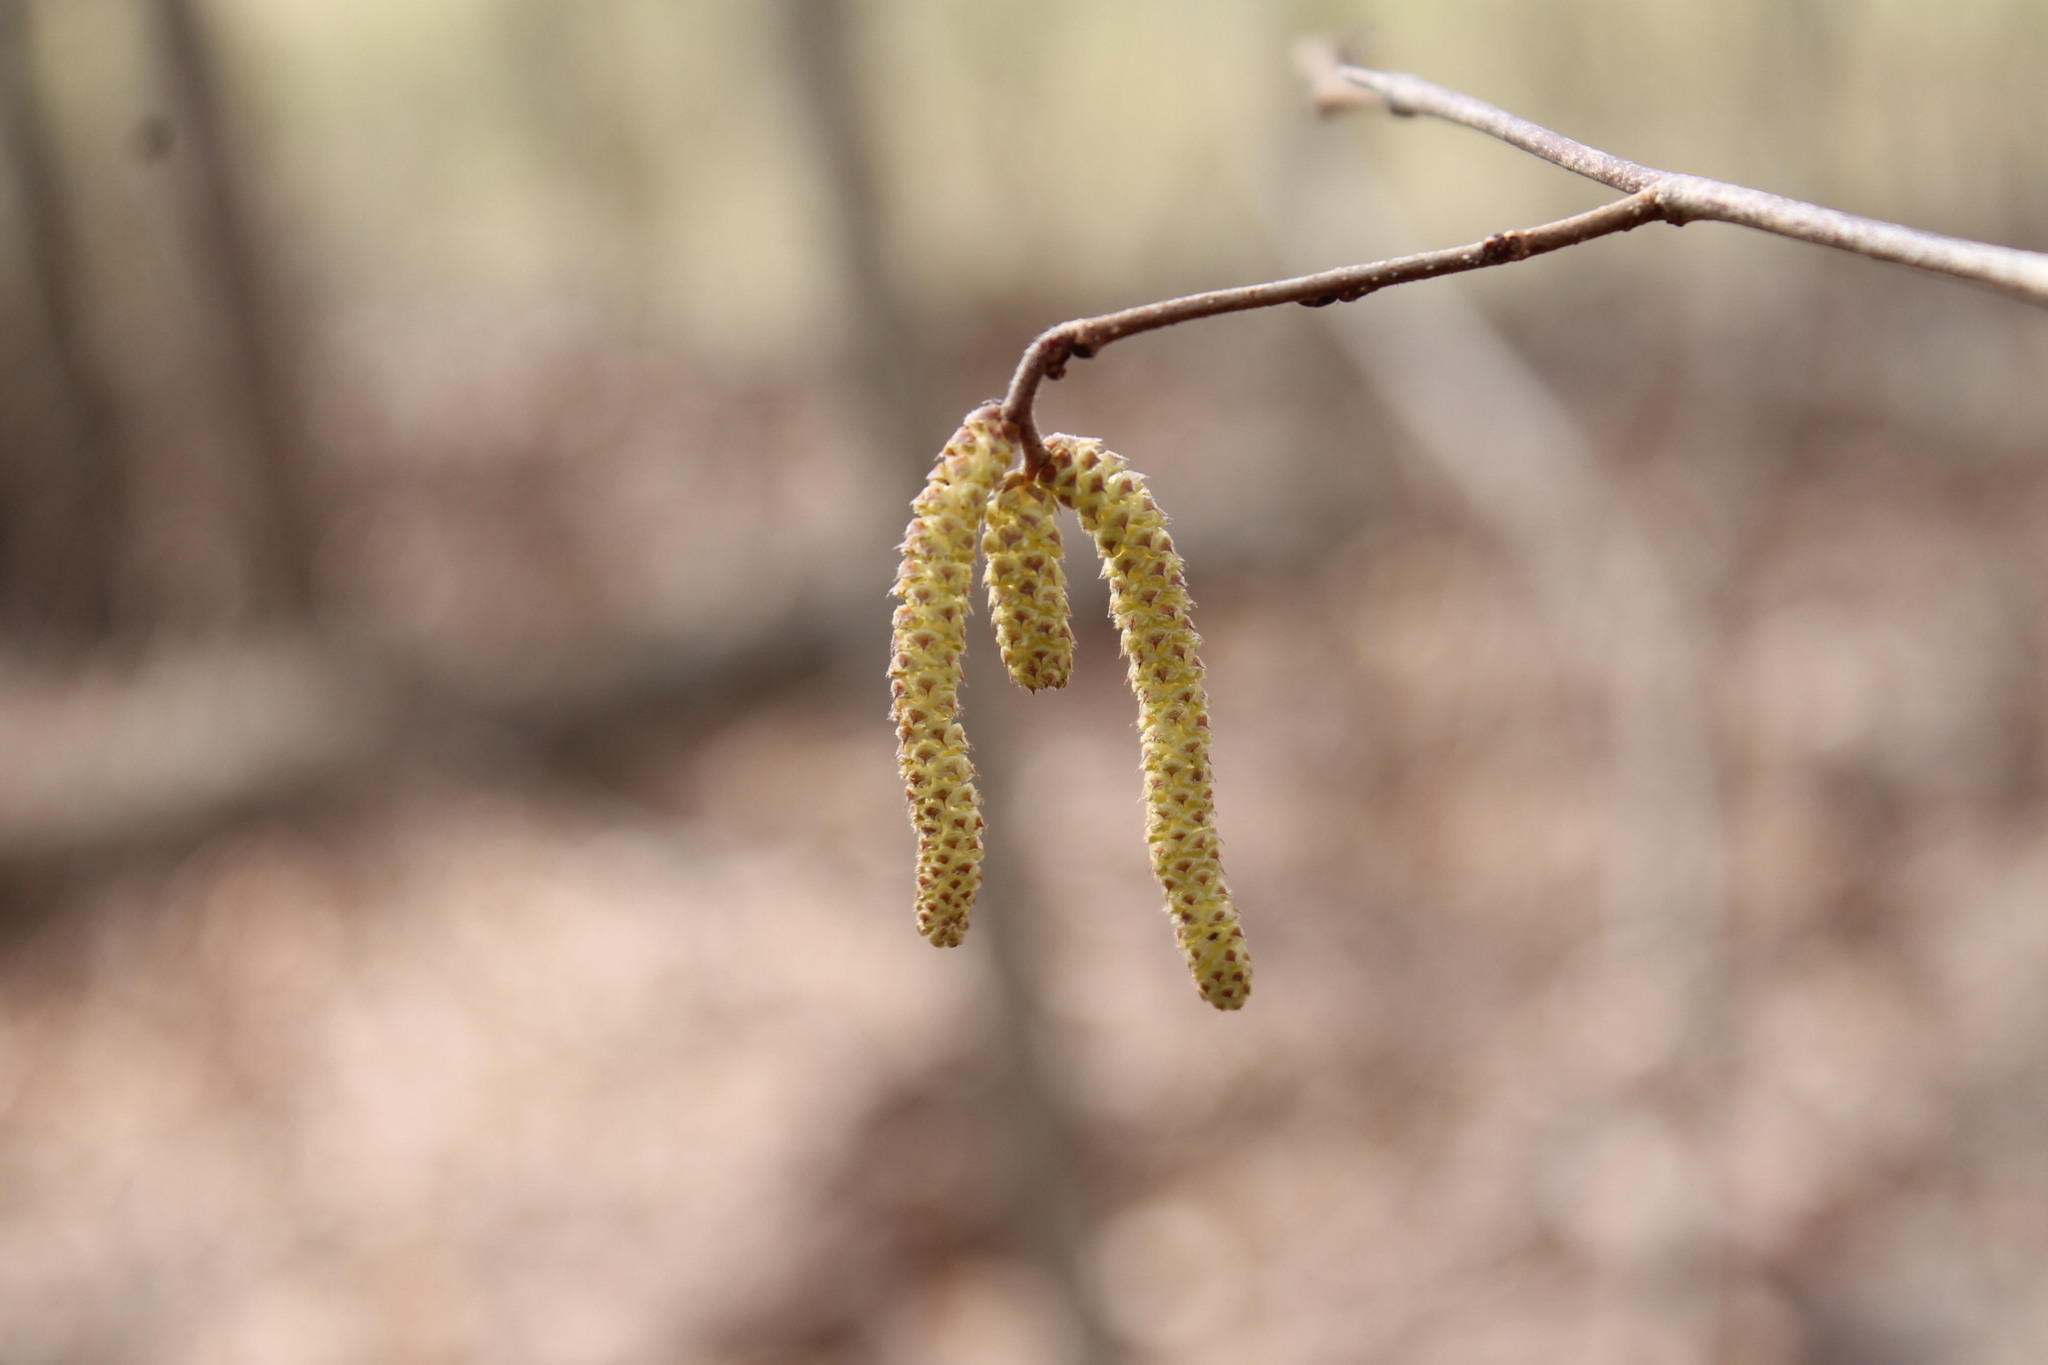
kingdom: Plantae
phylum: Tracheophyta
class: Magnoliopsida
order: Fagales
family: Betulaceae
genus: Corylus
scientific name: Corylus americana
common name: American hazel
